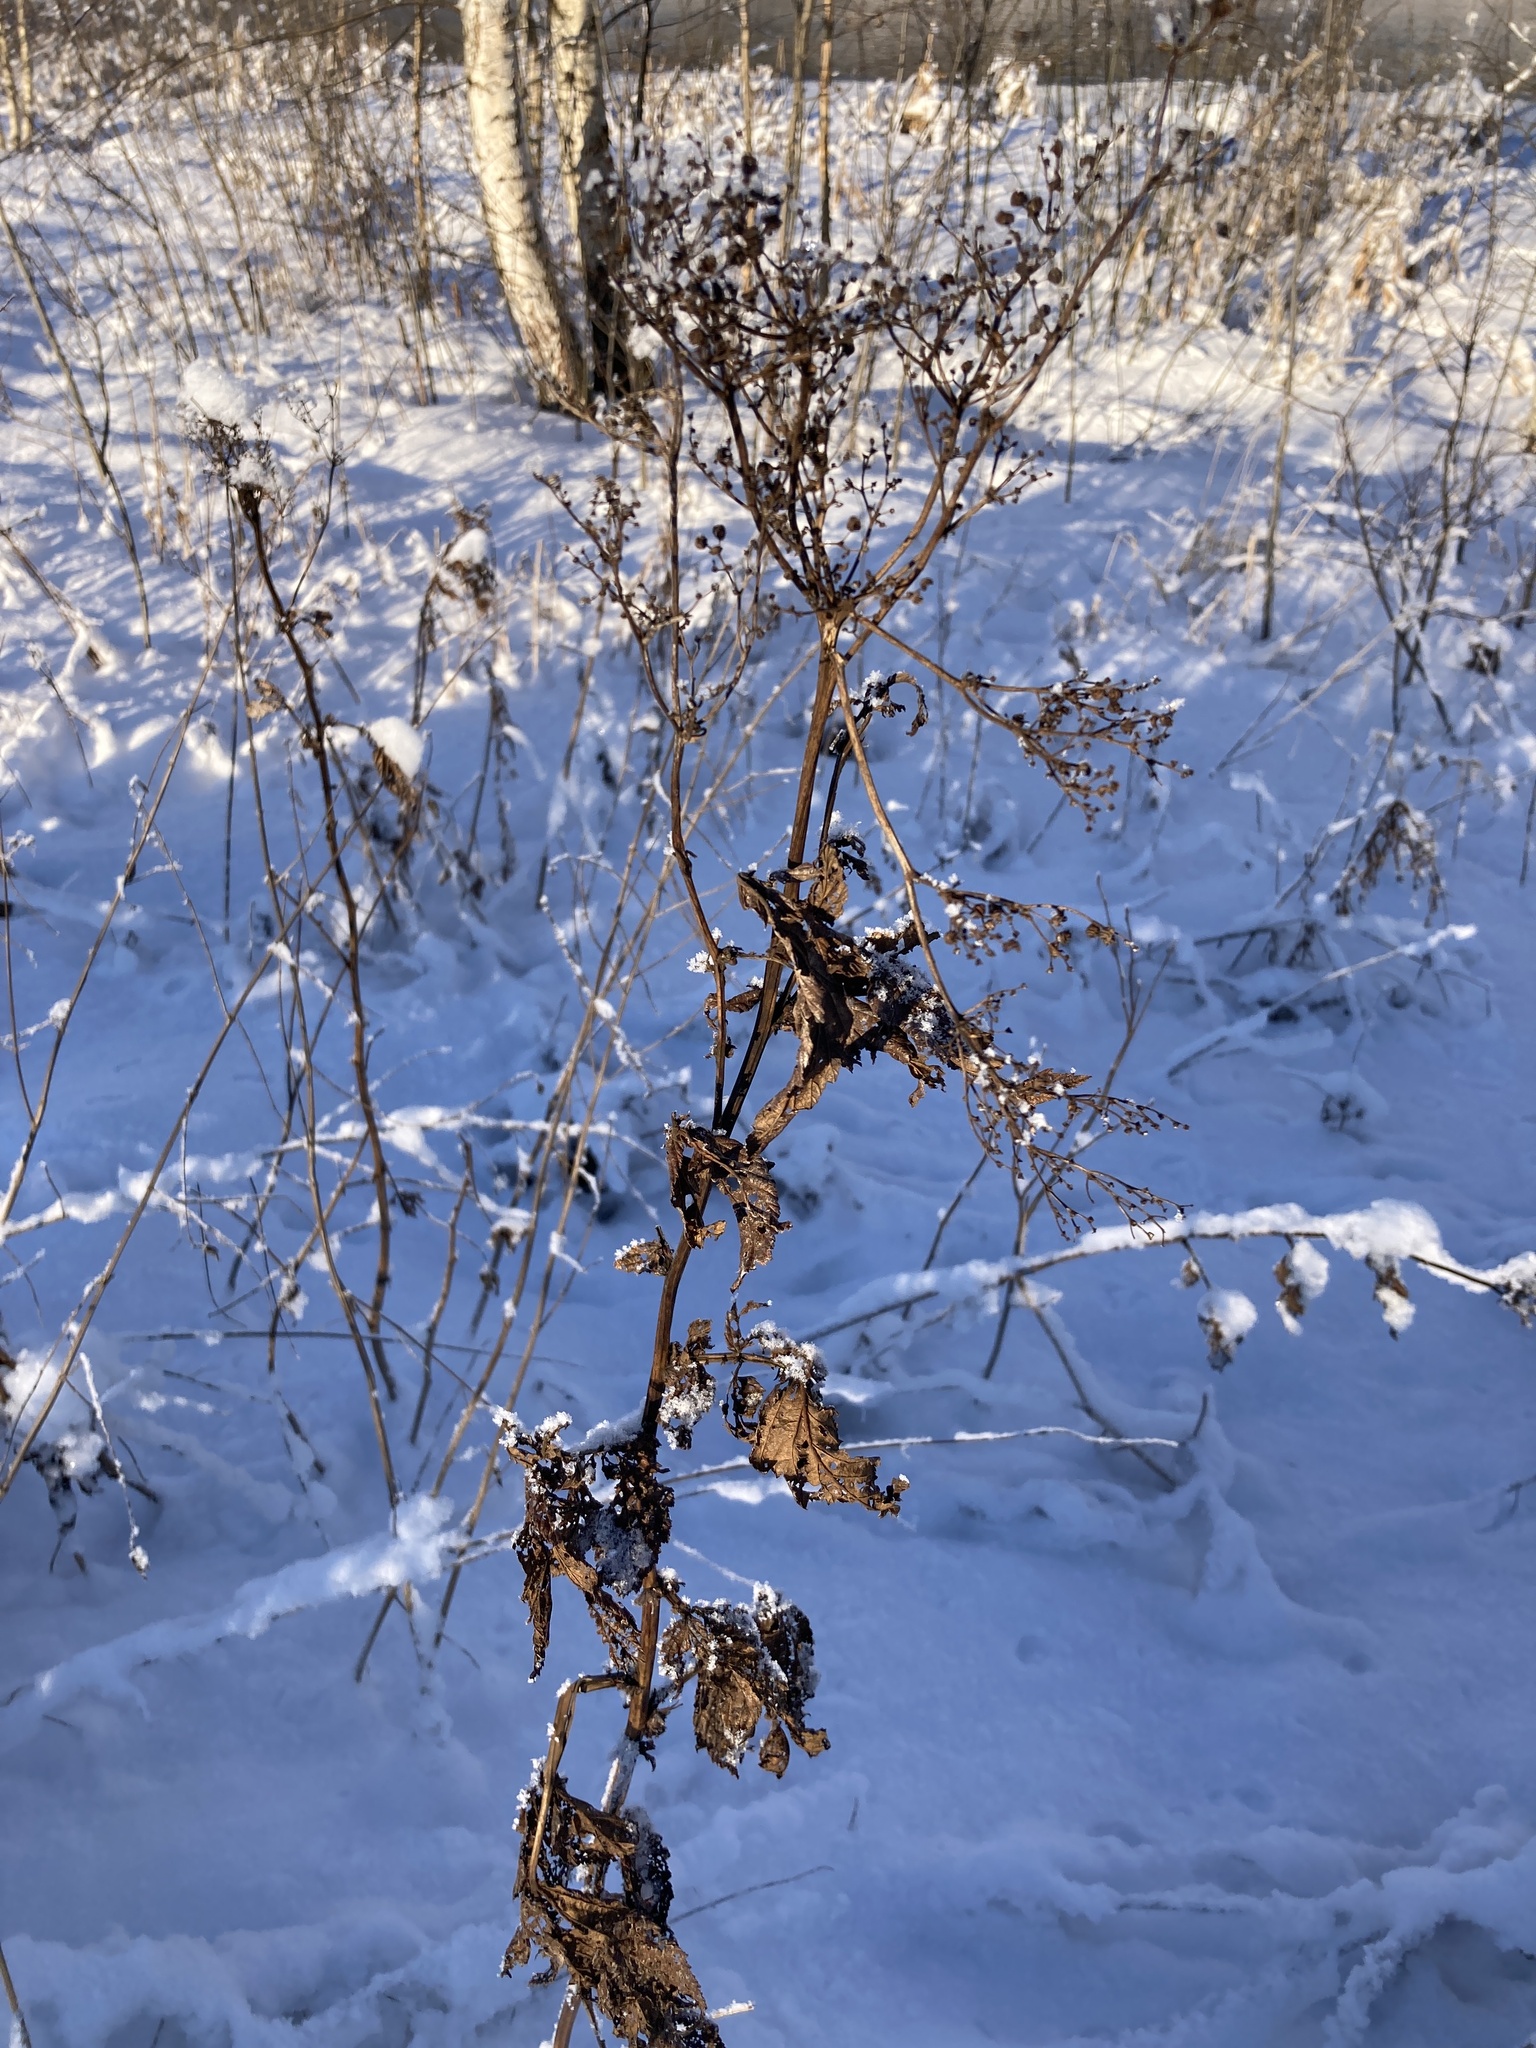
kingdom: Plantae
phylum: Tracheophyta
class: Magnoliopsida
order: Rosales
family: Rosaceae
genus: Filipendula
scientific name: Filipendula ulmaria
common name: Meadowsweet
